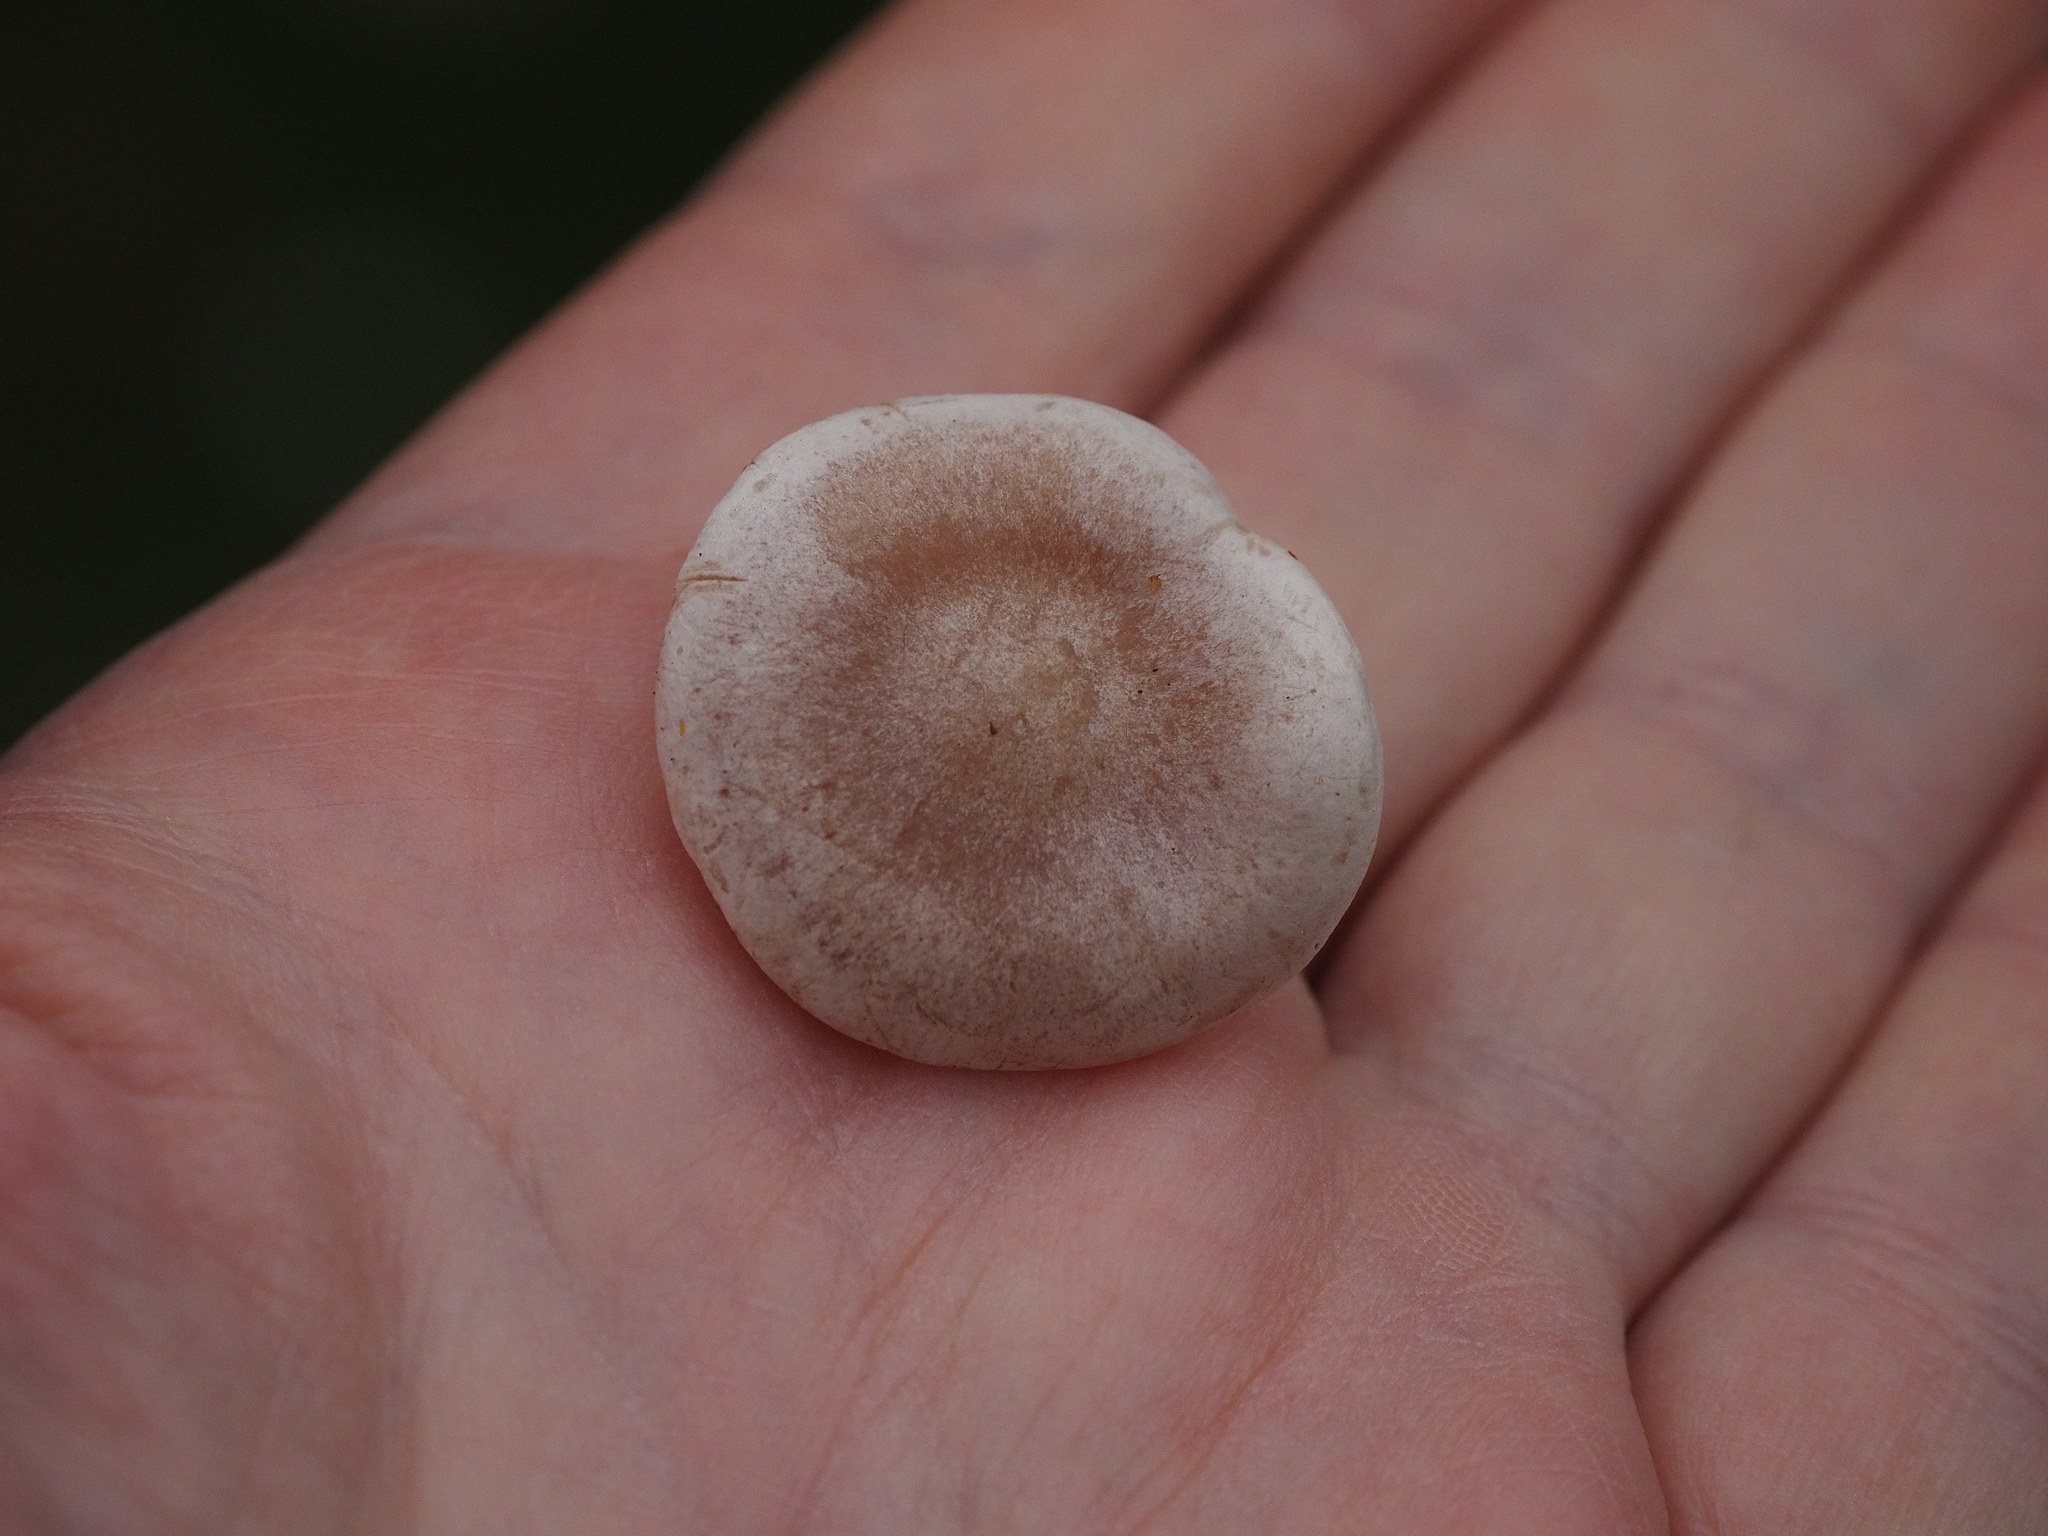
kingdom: Fungi
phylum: Basidiomycota
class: Agaricomycetes
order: Agaricales
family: Tricholomataceae
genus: Collybia
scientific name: Collybia
